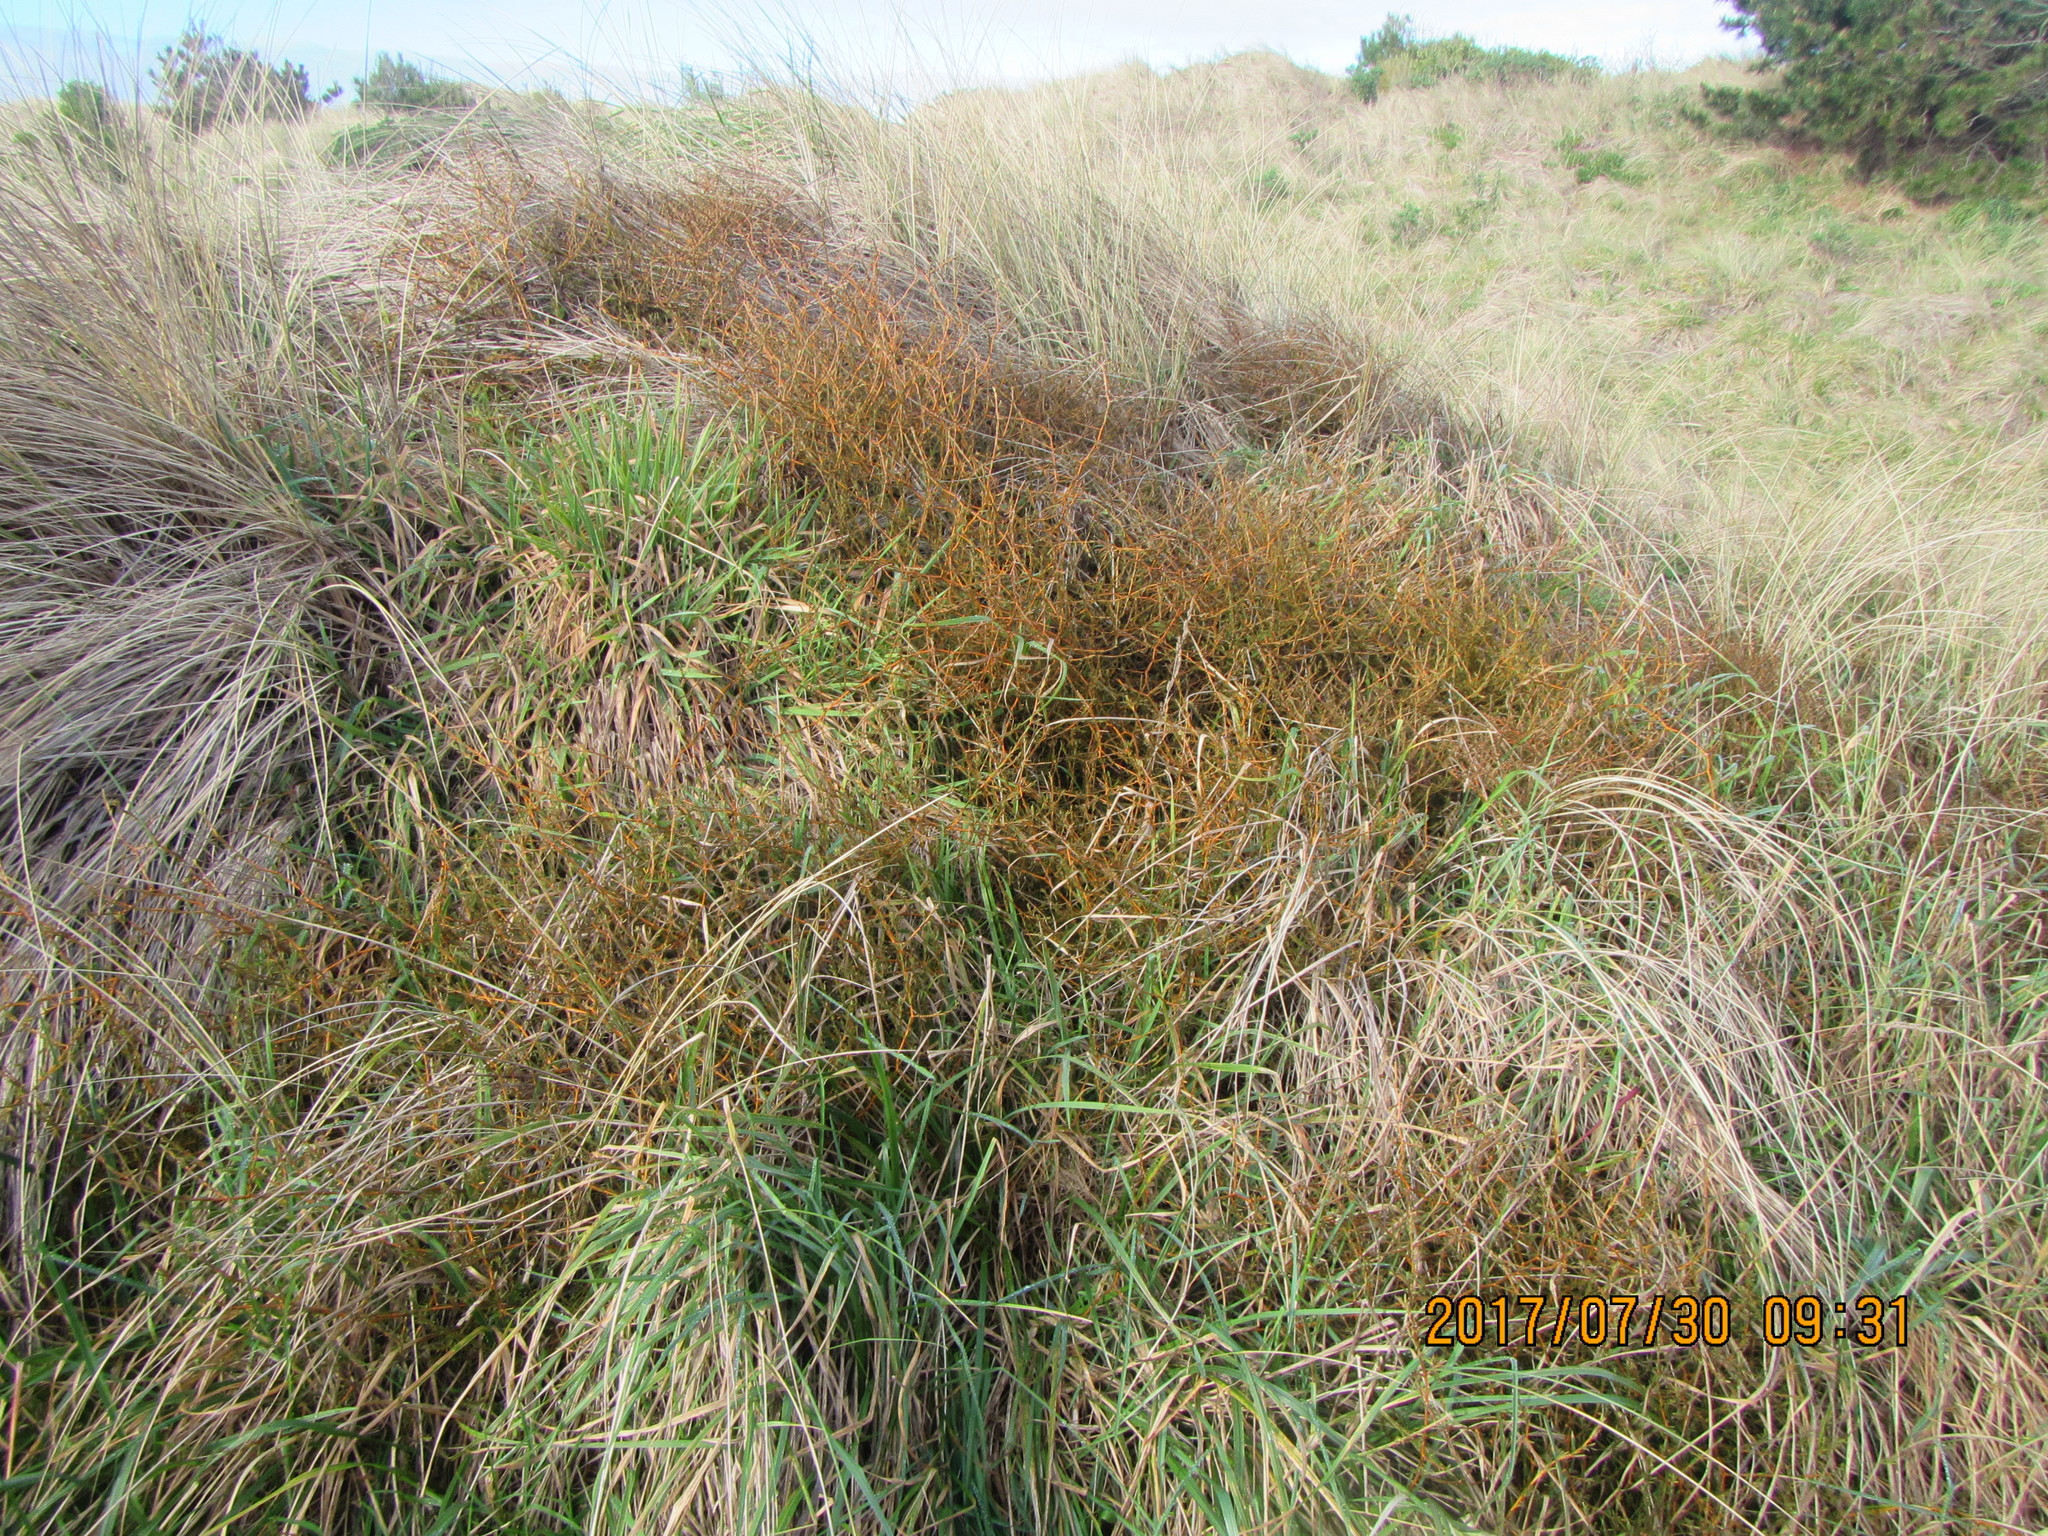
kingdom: Plantae
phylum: Tracheophyta
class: Magnoliopsida
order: Gentianales
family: Rubiaceae
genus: Coprosma
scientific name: Coprosma acerosa
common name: Sand coprosma
